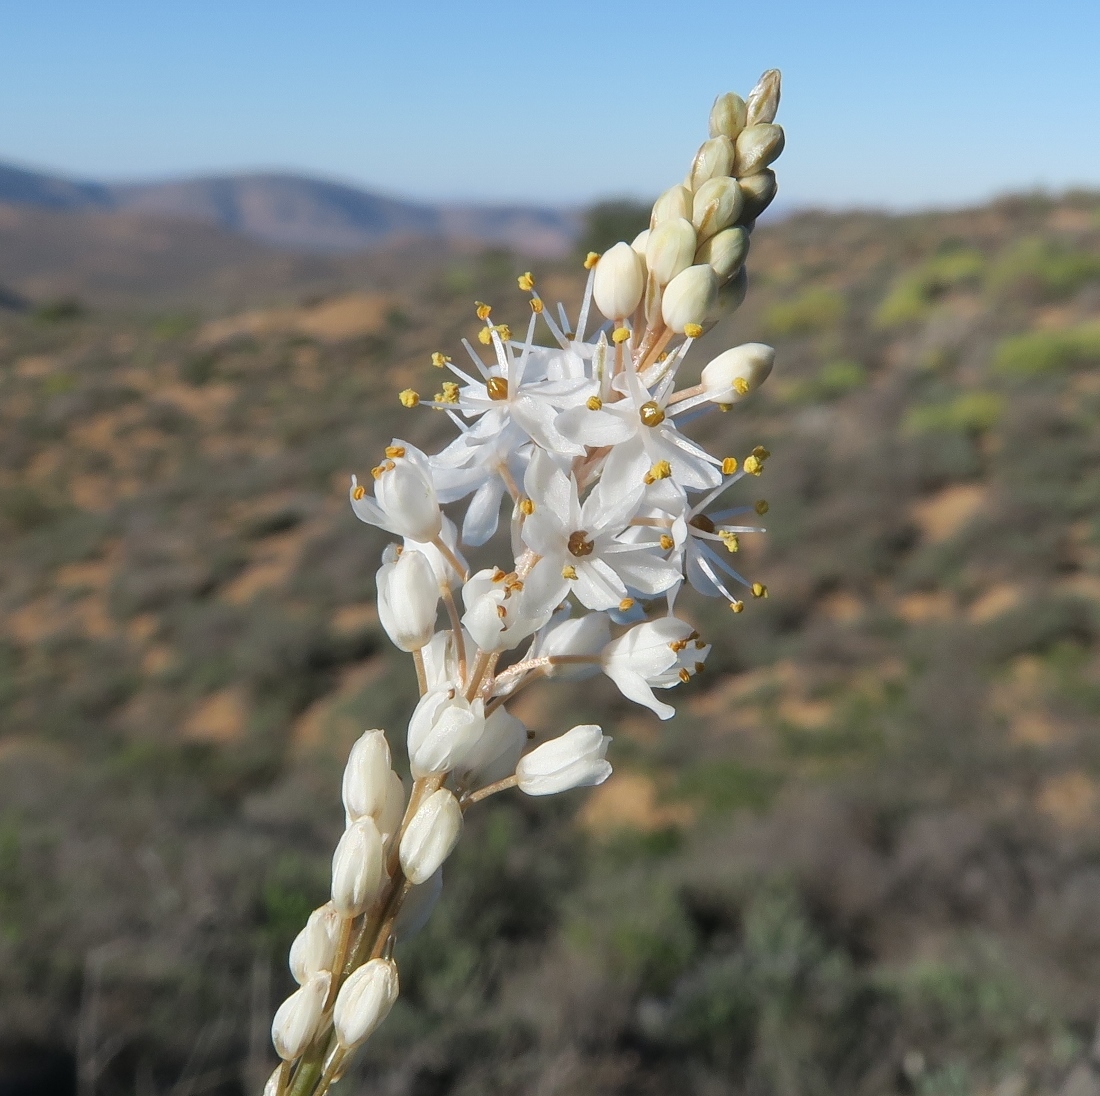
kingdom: Plantae
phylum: Tracheophyta
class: Liliopsida
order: Asparagales
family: Asphodelaceae
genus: Bulbinella
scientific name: Bulbinella graminifolia
